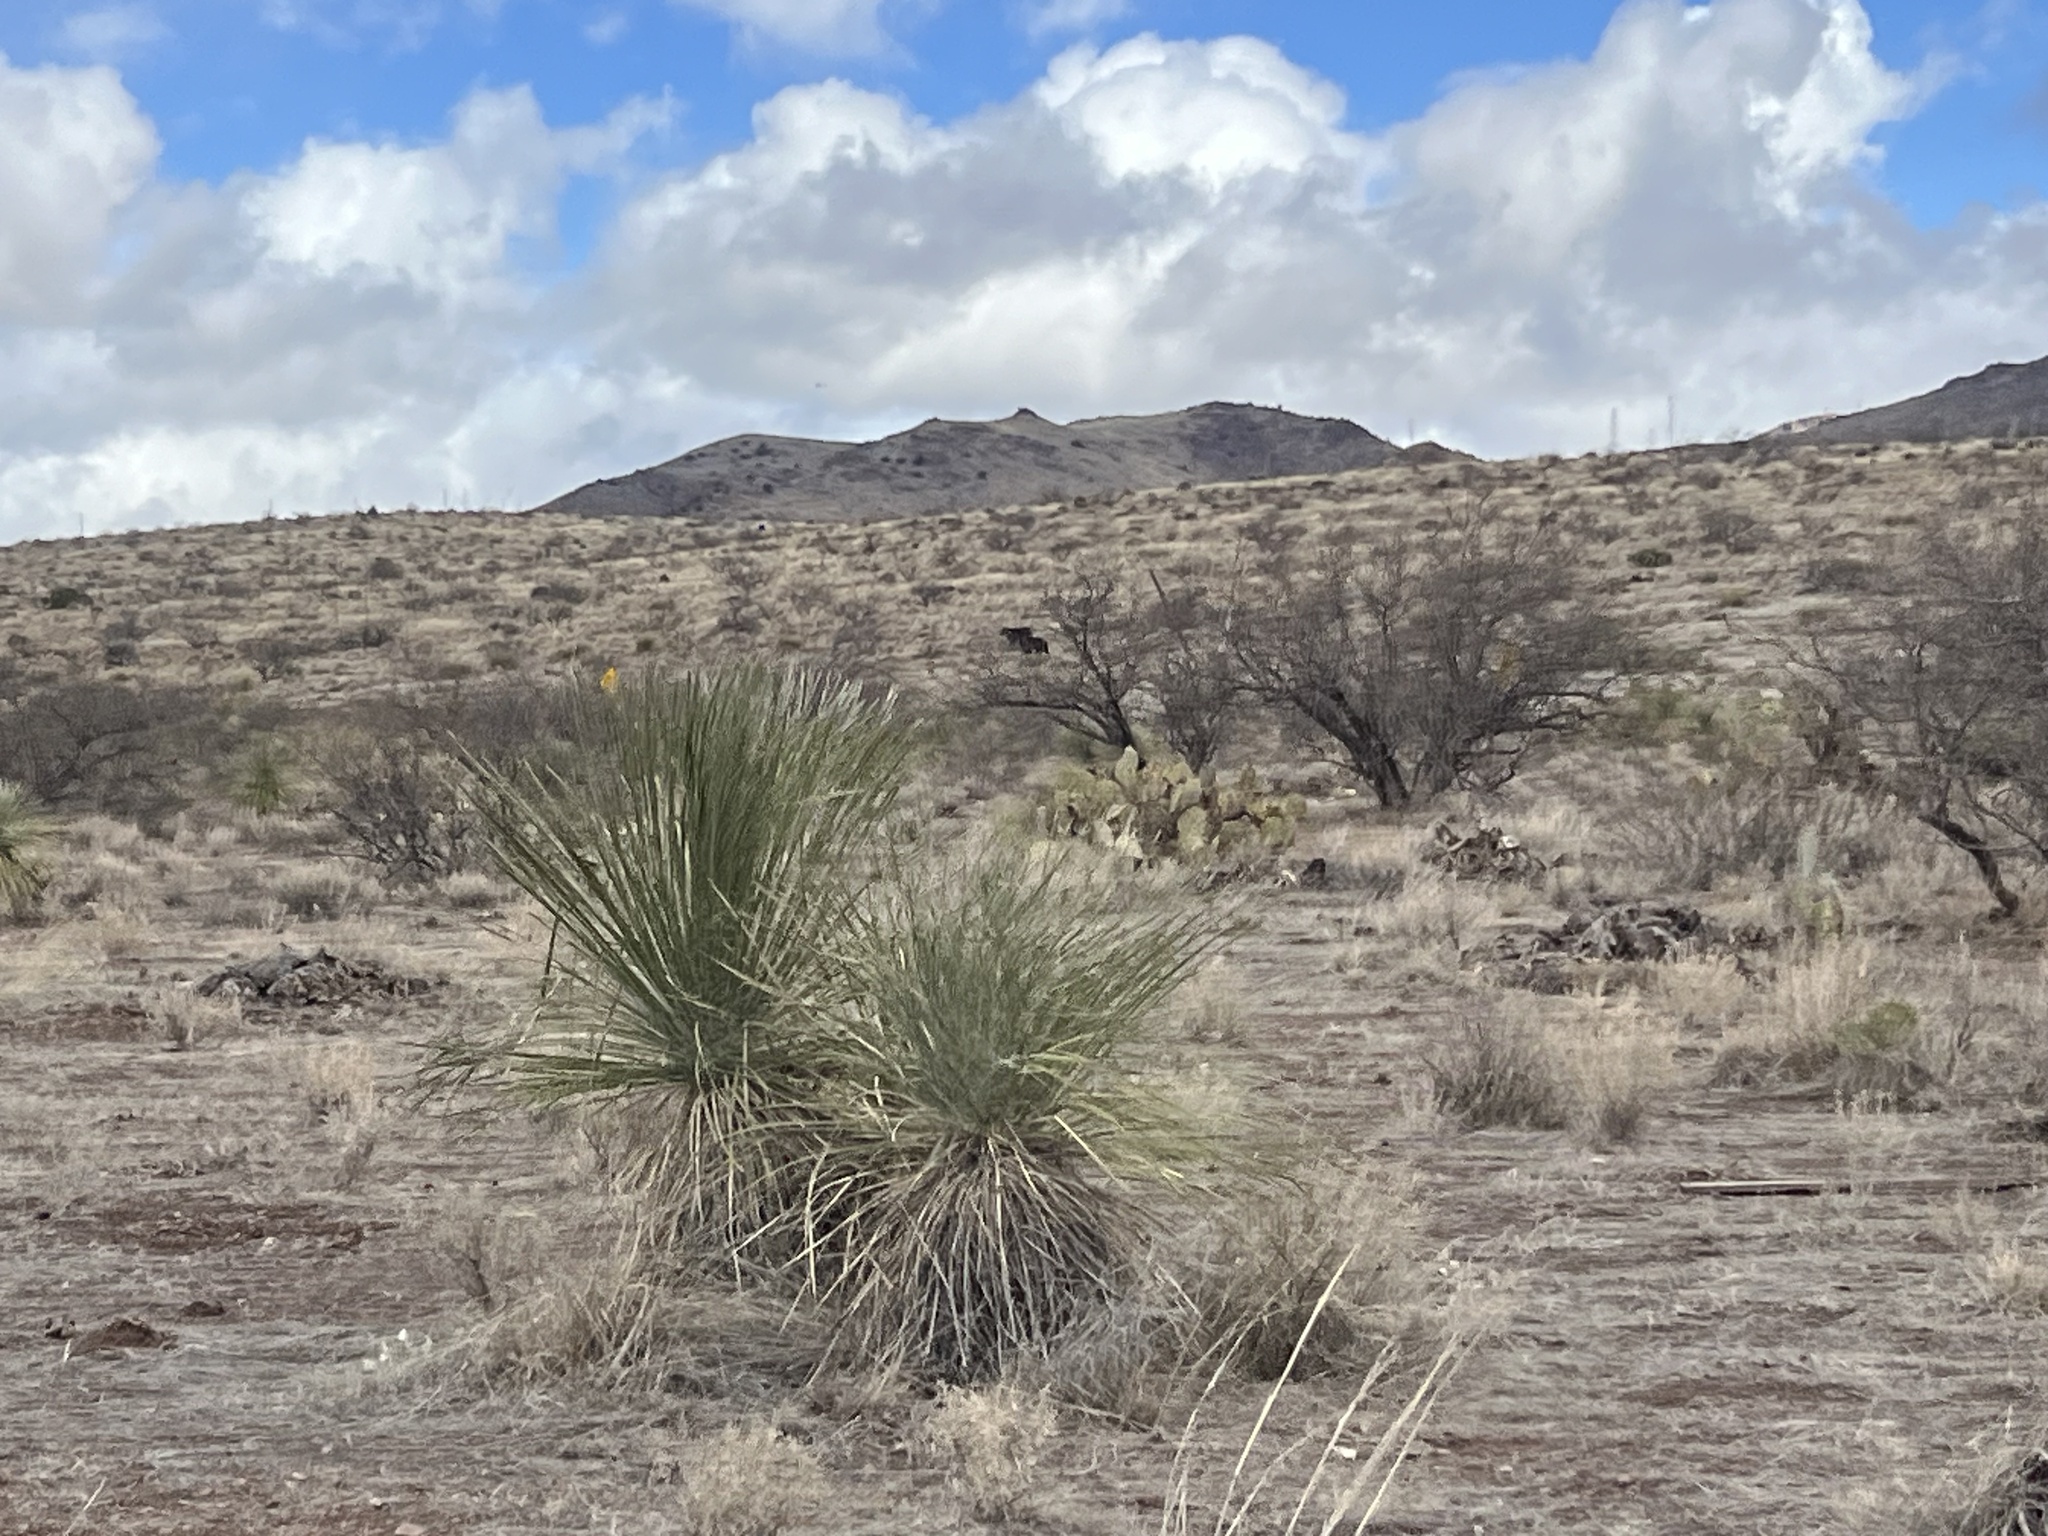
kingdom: Plantae
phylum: Tracheophyta
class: Liliopsida
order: Asparagales
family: Asparagaceae
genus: Yucca
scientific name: Yucca elata
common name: Palmella
